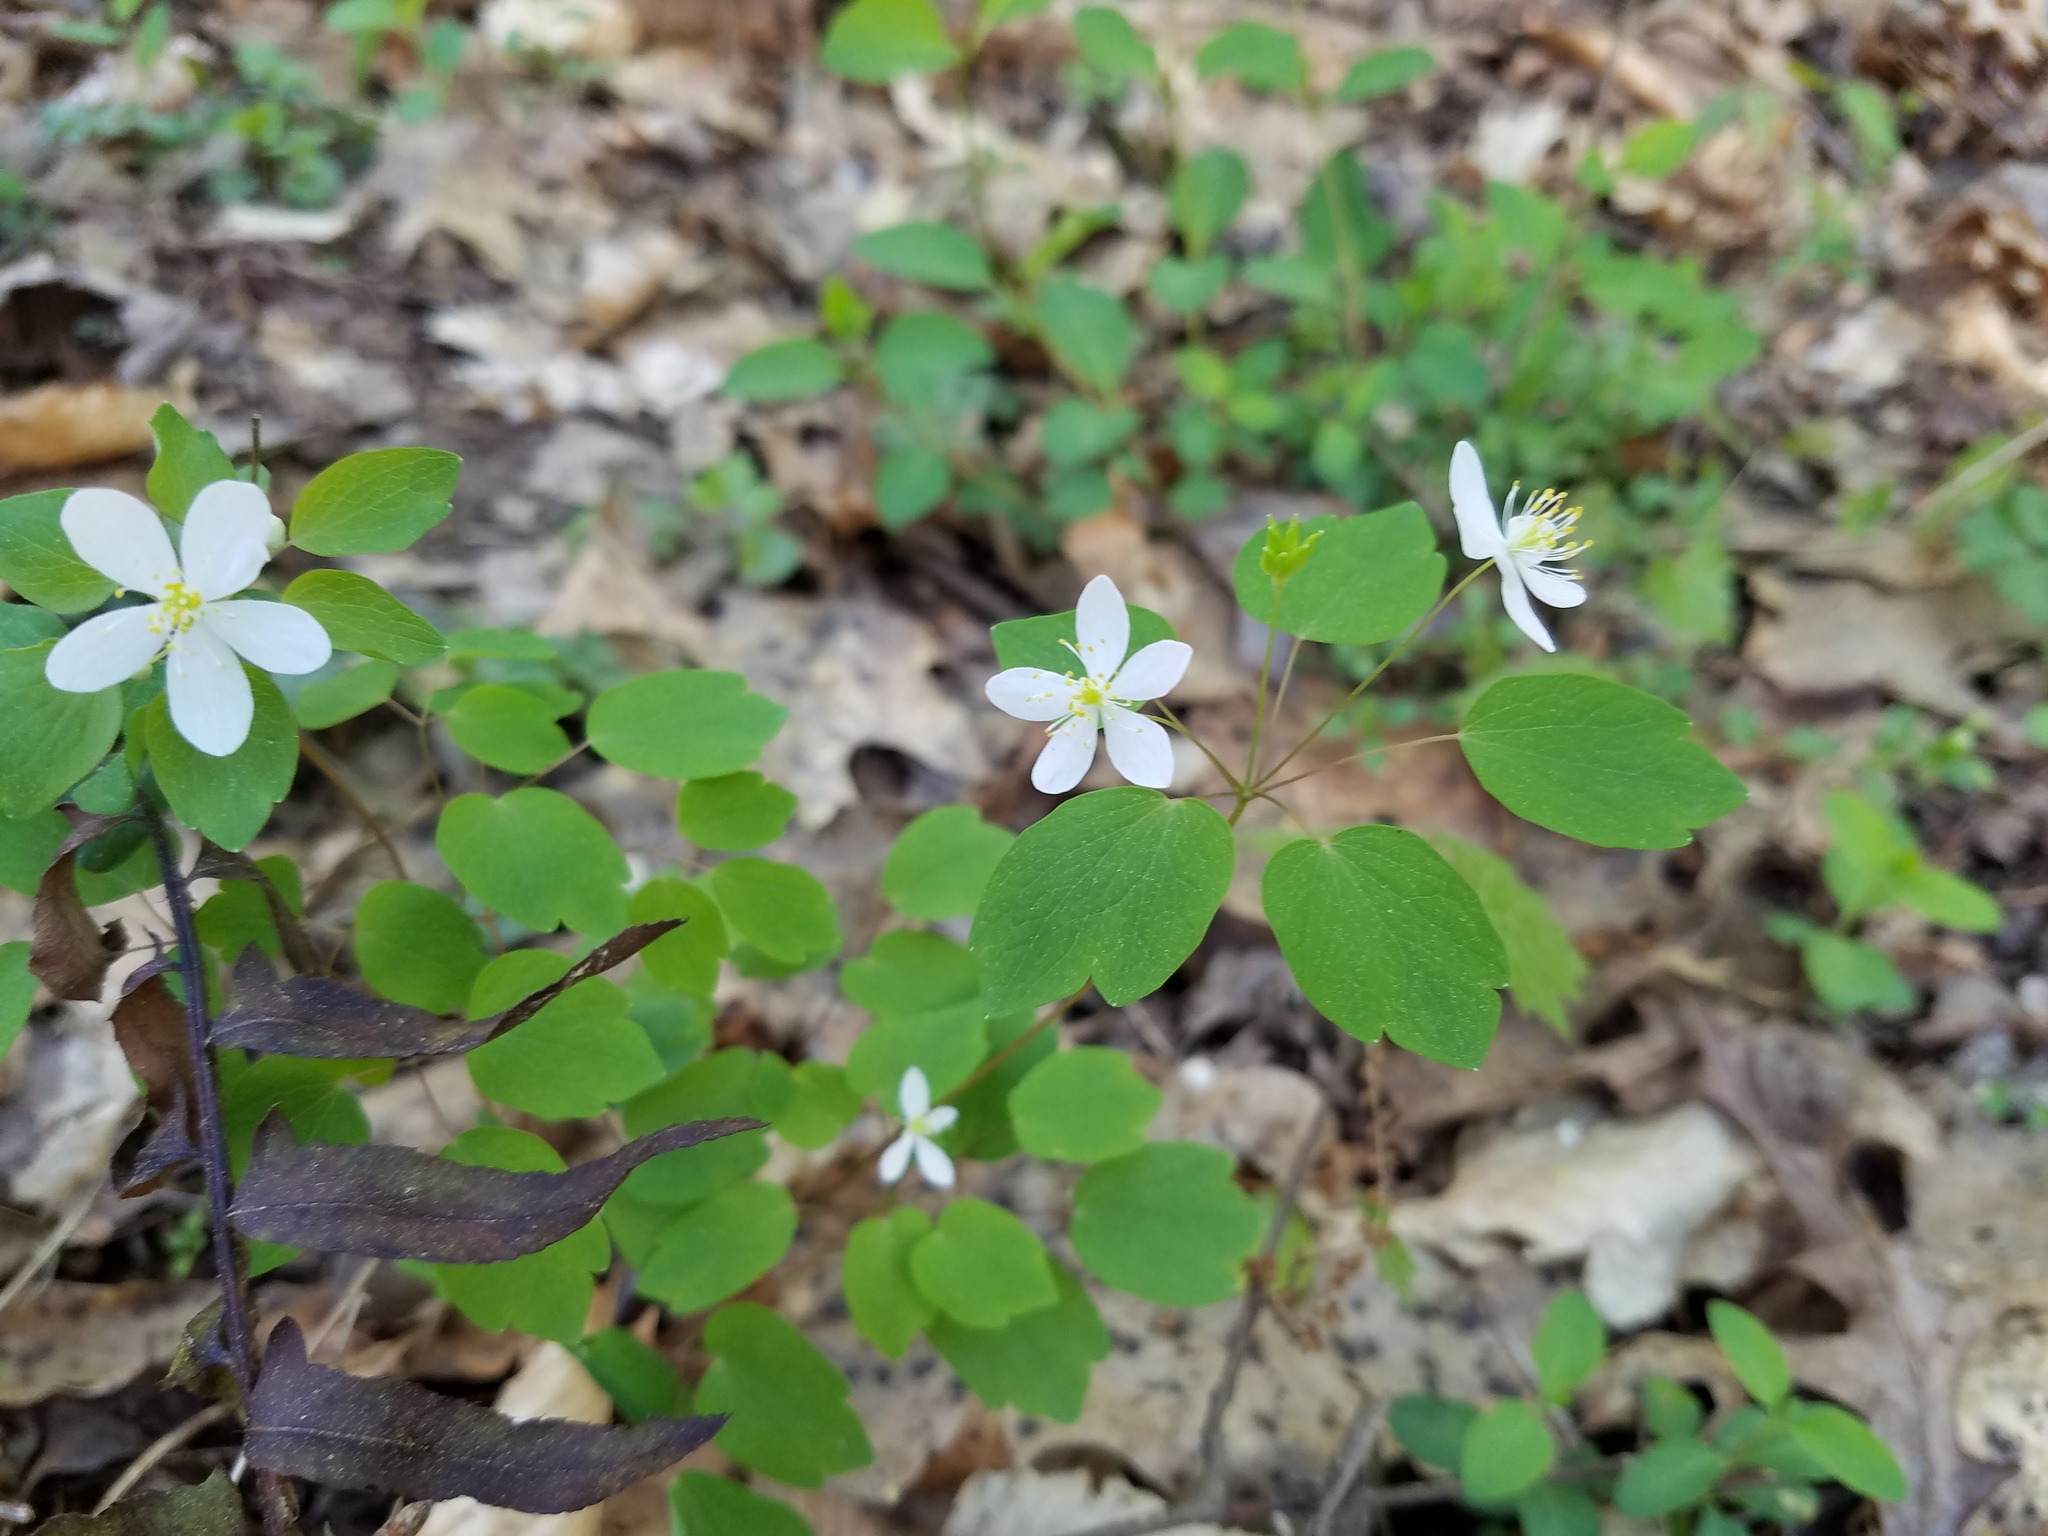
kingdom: Plantae
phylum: Tracheophyta
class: Magnoliopsida
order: Ranunculales
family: Ranunculaceae
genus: Thalictrum
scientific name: Thalictrum thalictroides
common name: Rue-anemone
